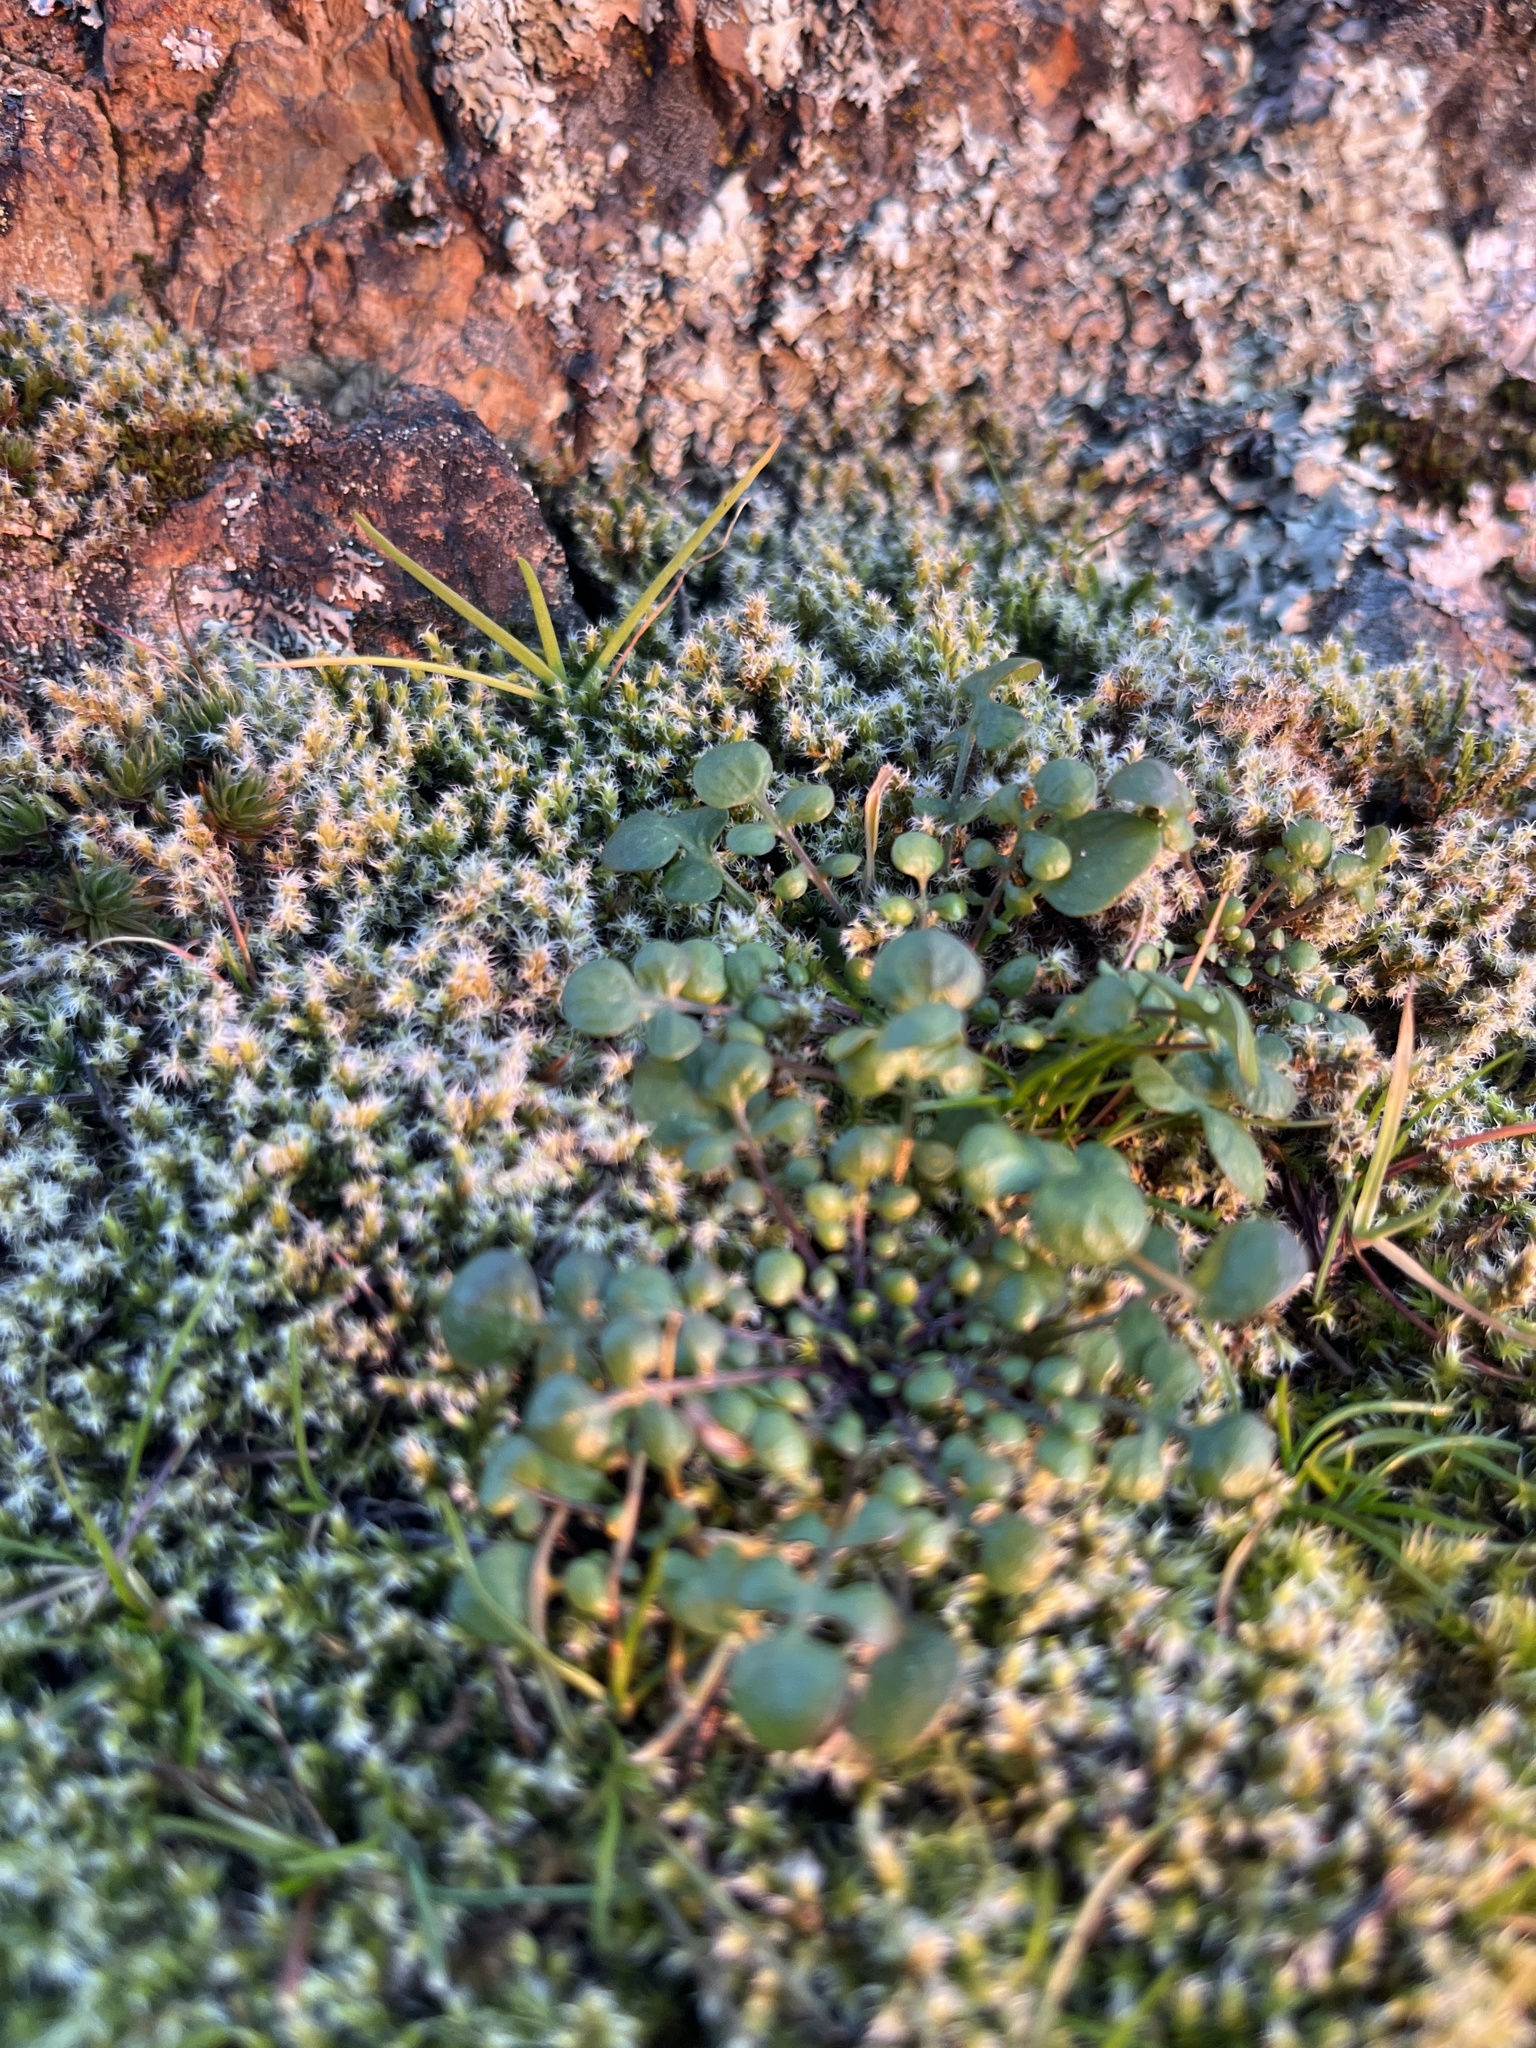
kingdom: Plantae
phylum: Tracheophyta
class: Magnoliopsida
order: Brassicales
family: Brassicaceae
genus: Teesdalia
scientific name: Teesdalia nudicaulis
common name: Shepherd's cress
